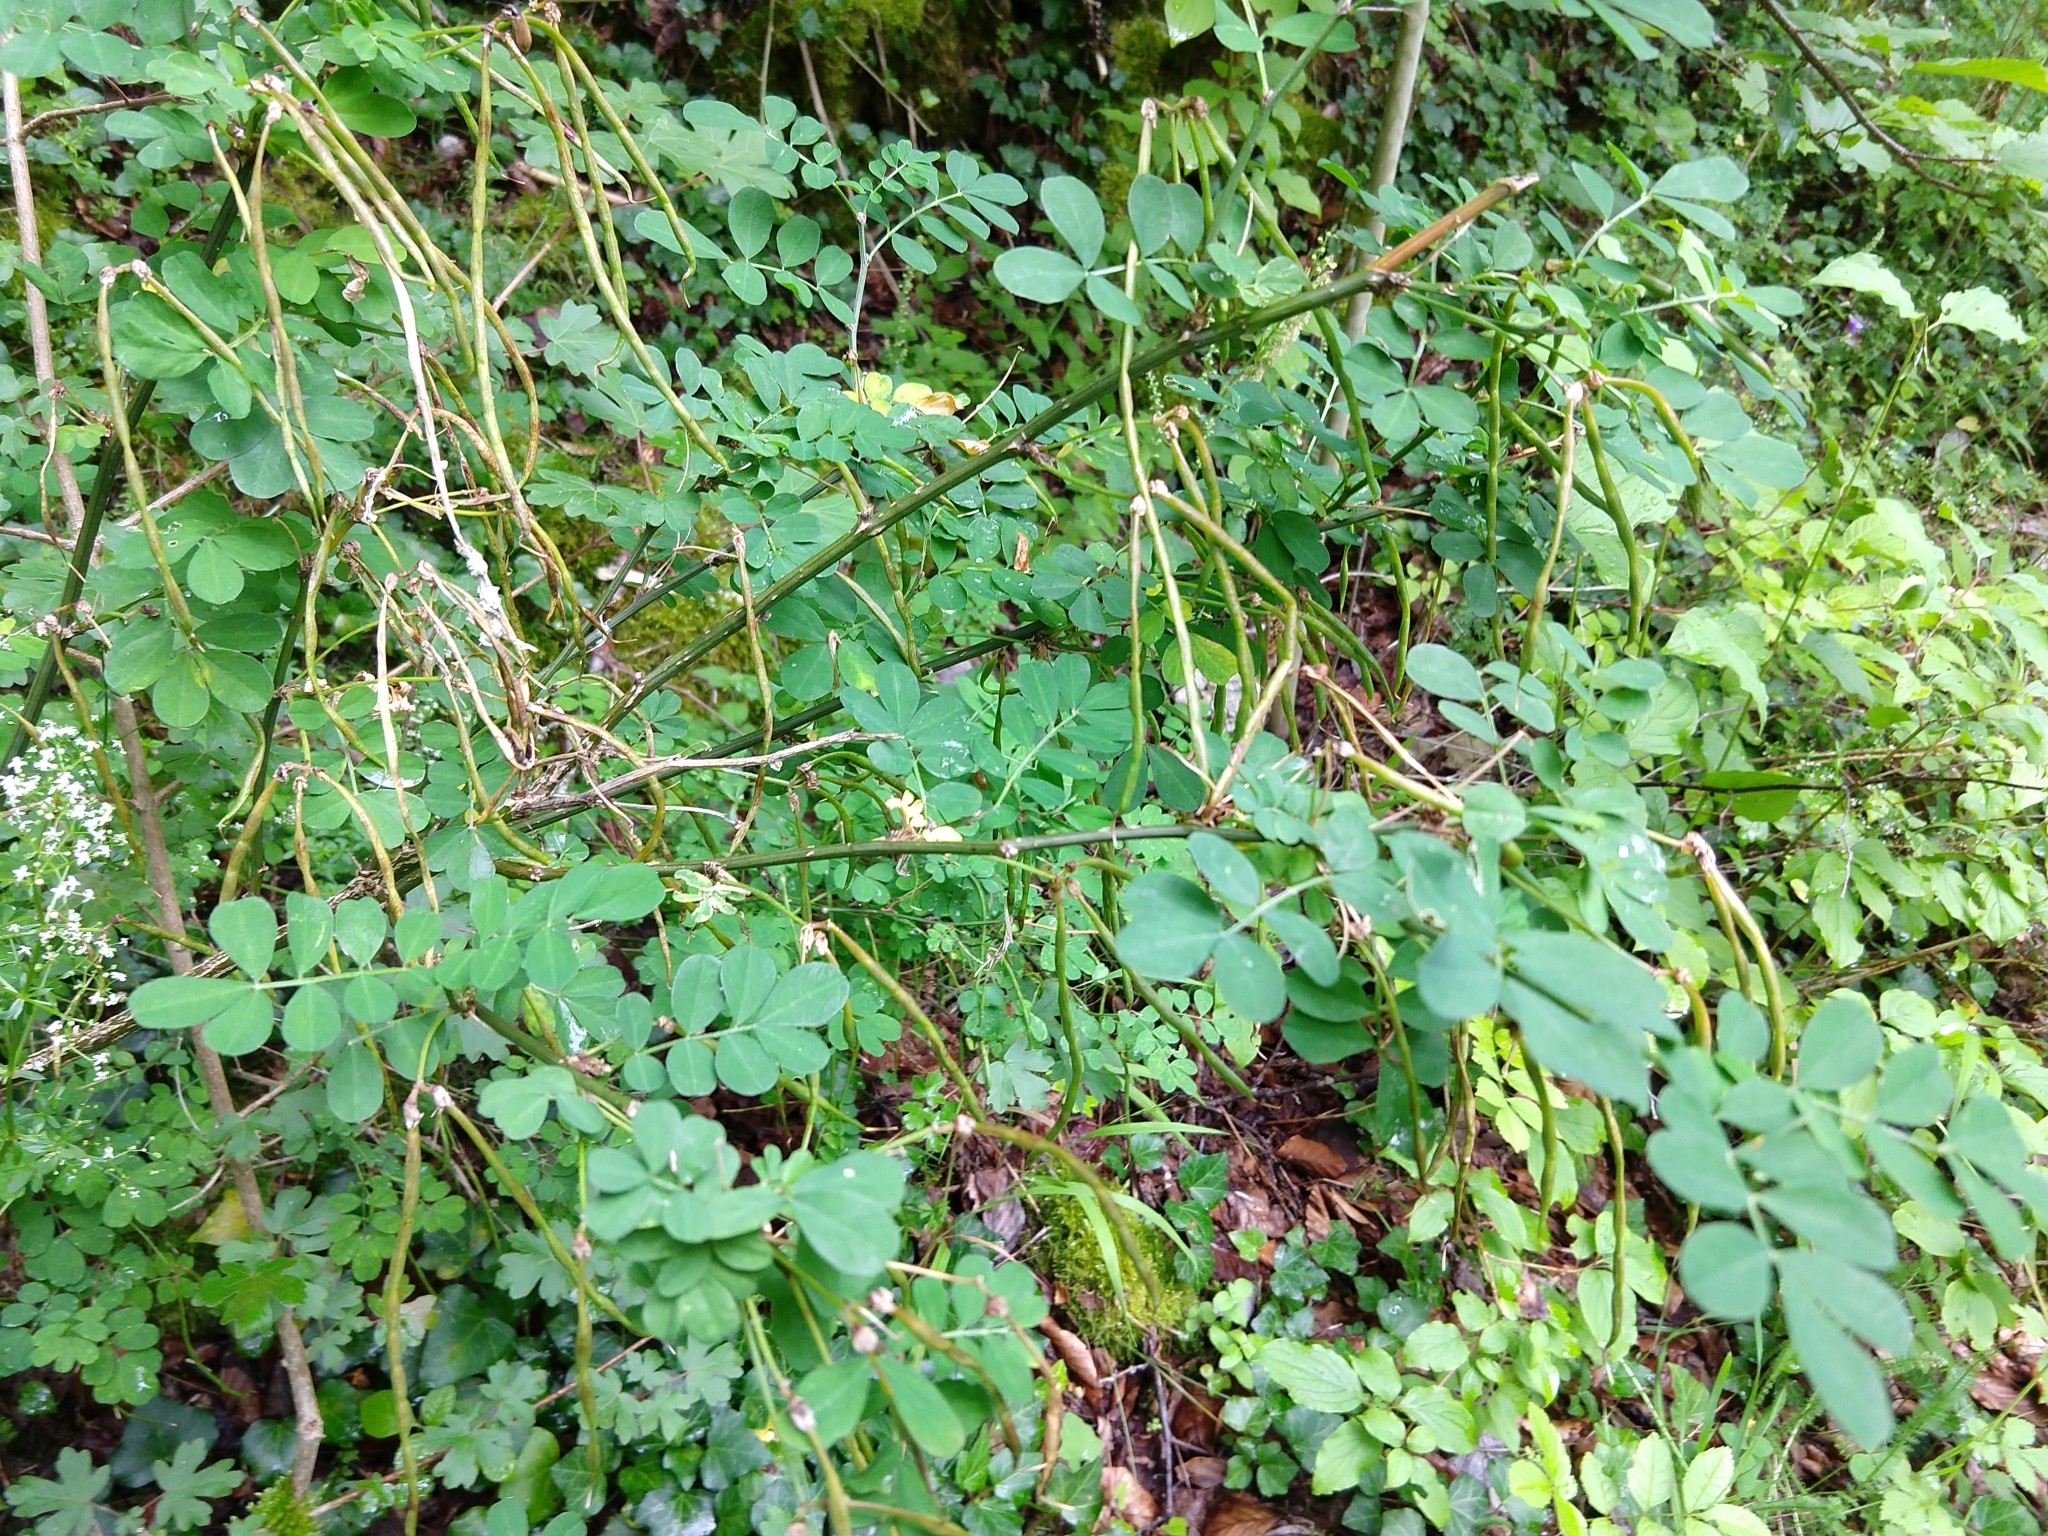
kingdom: Plantae
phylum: Tracheophyta
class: Magnoliopsida
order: Fabales
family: Fabaceae
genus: Hippocrepis
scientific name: Hippocrepis emerus
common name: Scorpion senna
